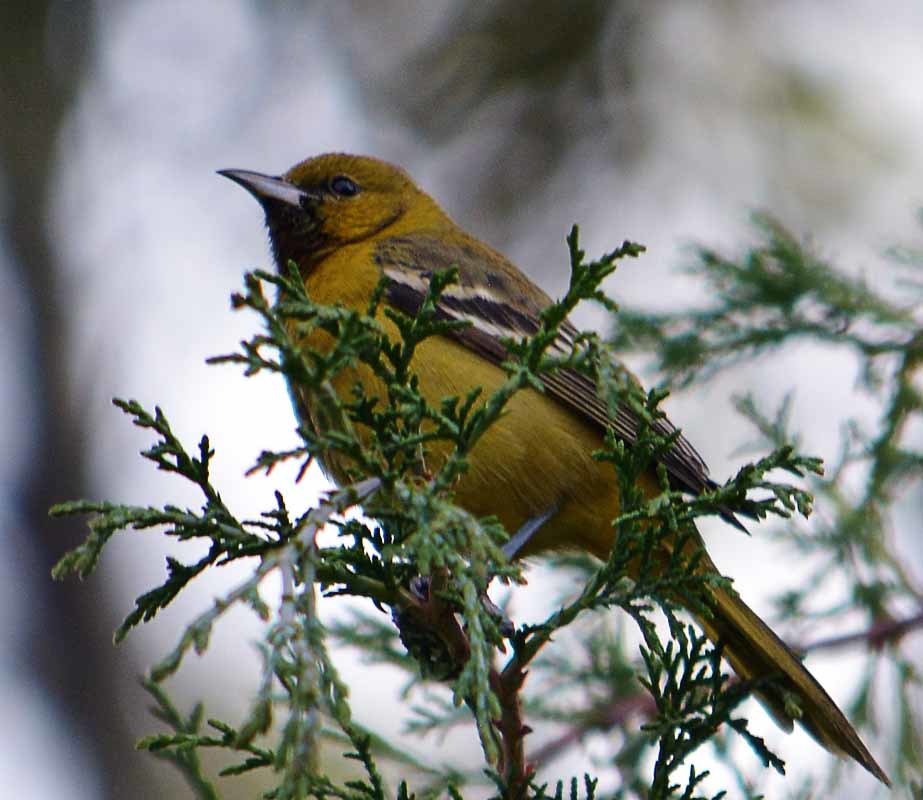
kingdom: Animalia
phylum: Chordata
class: Aves
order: Passeriformes
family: Icteridae
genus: Icterus
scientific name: Icterus spurius
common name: Orchard oriole
